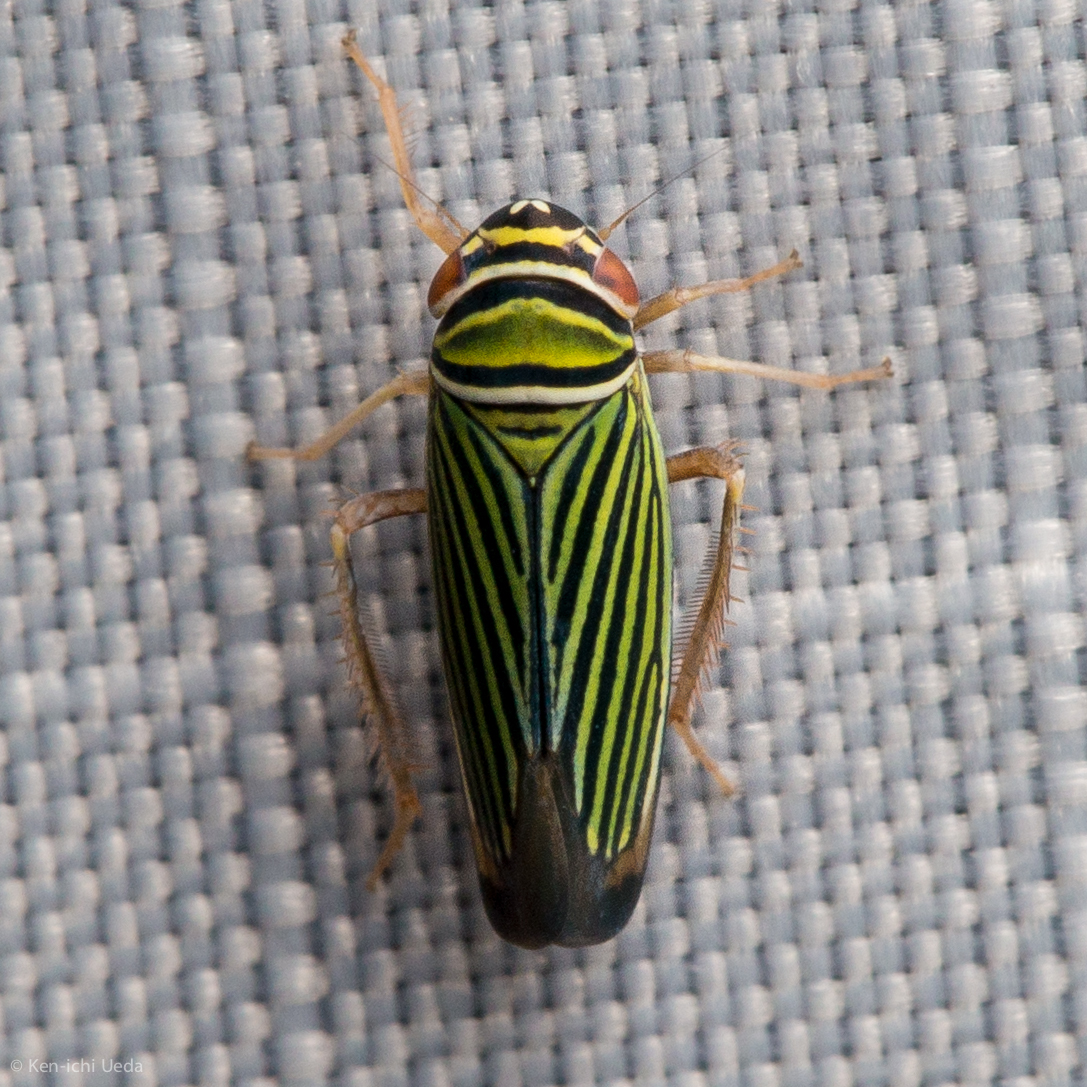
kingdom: Animalia
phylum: Arthropoda
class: Insecta
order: Hemiptera
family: Cicadellidae
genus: Tylozygus
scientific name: Tylozygus bifidus
